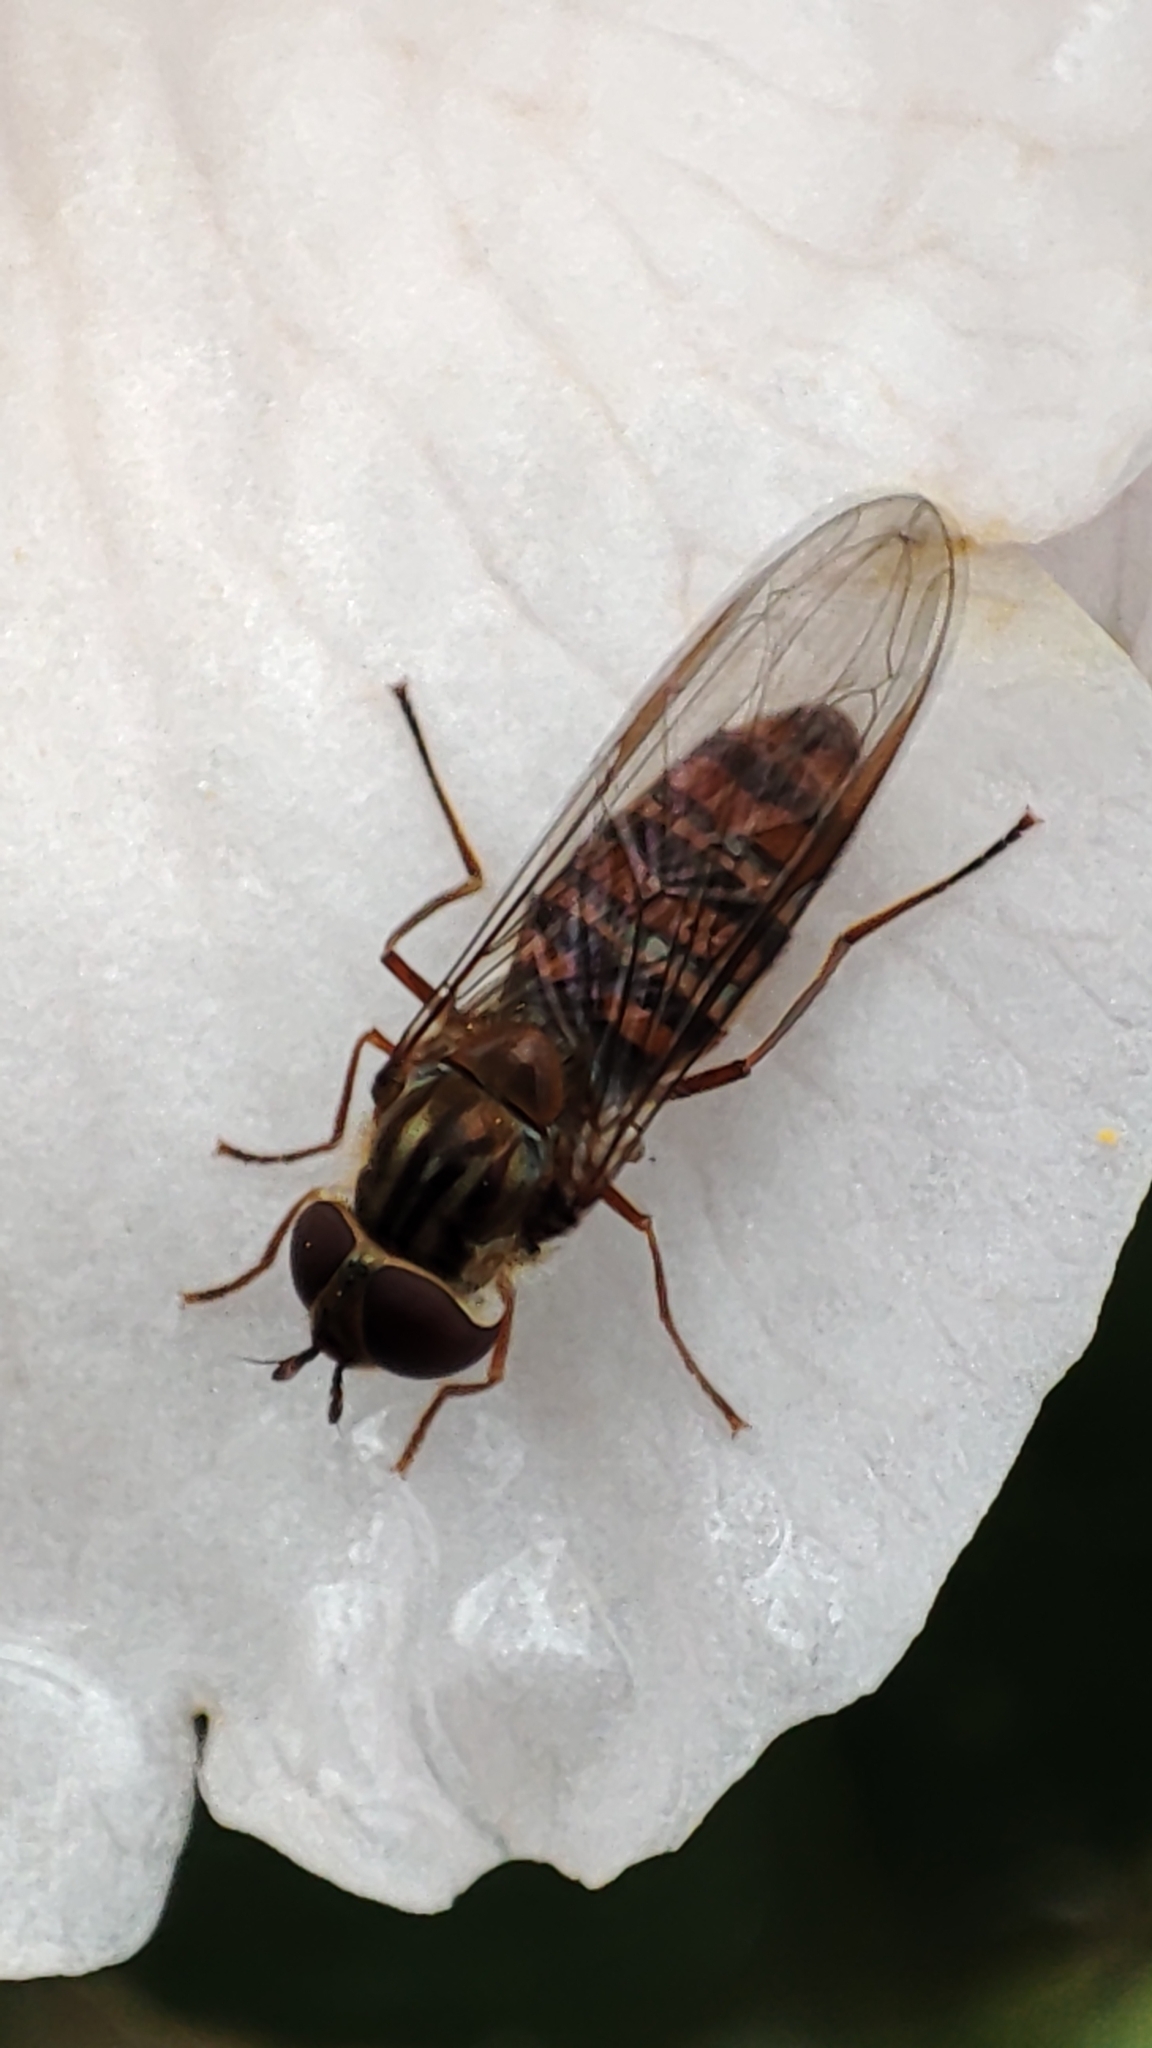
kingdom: Animalia
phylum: Arthropoda
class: Insecta
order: Diptera
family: Syrphidae
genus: Episyrphus
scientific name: Episyrphus balteatus
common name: Marmalade hoverfly
